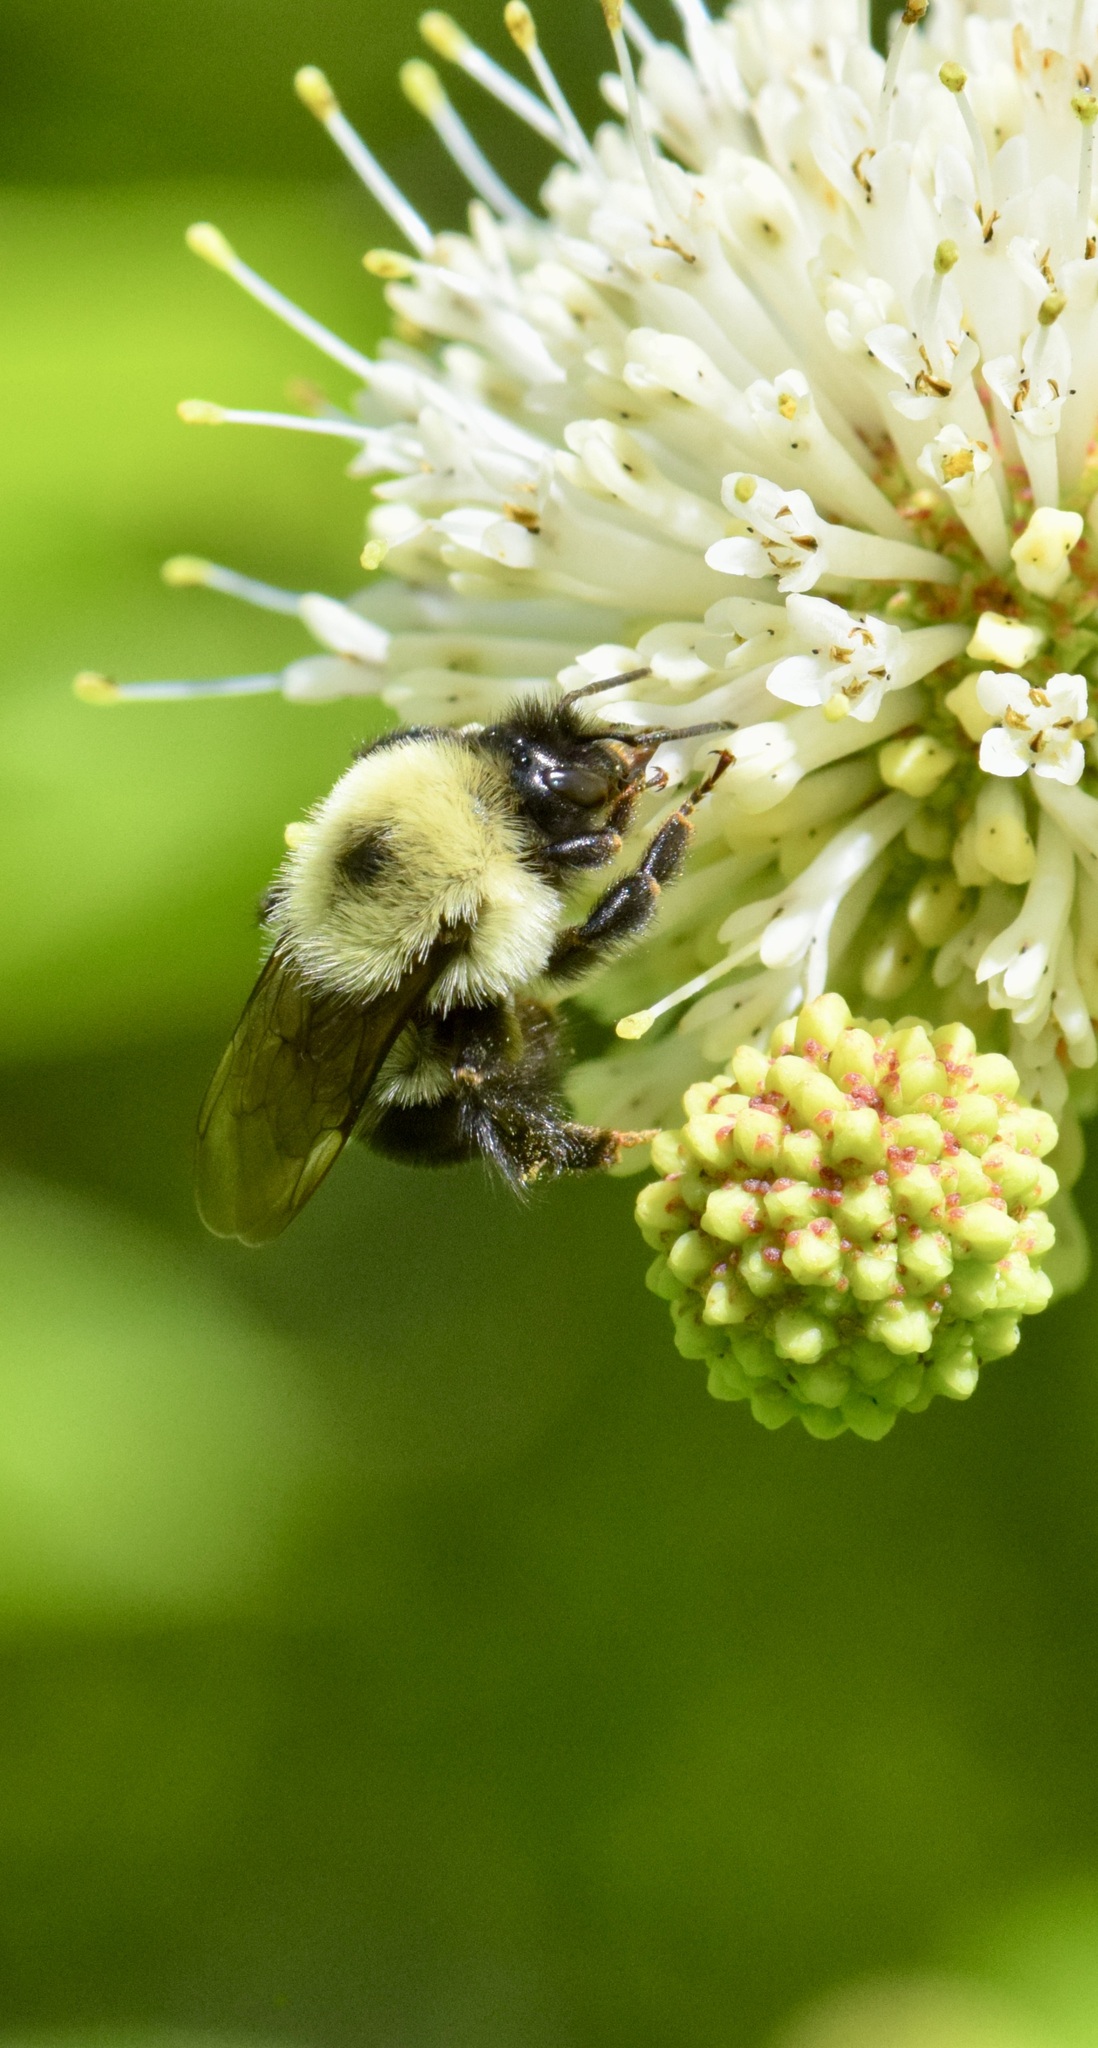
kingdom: Animalia
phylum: Arthropoda
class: Insecta
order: Hymenoptera
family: Apidae
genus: Bombus
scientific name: Bombus bimaculatus
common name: Two-spotted bumble bee
